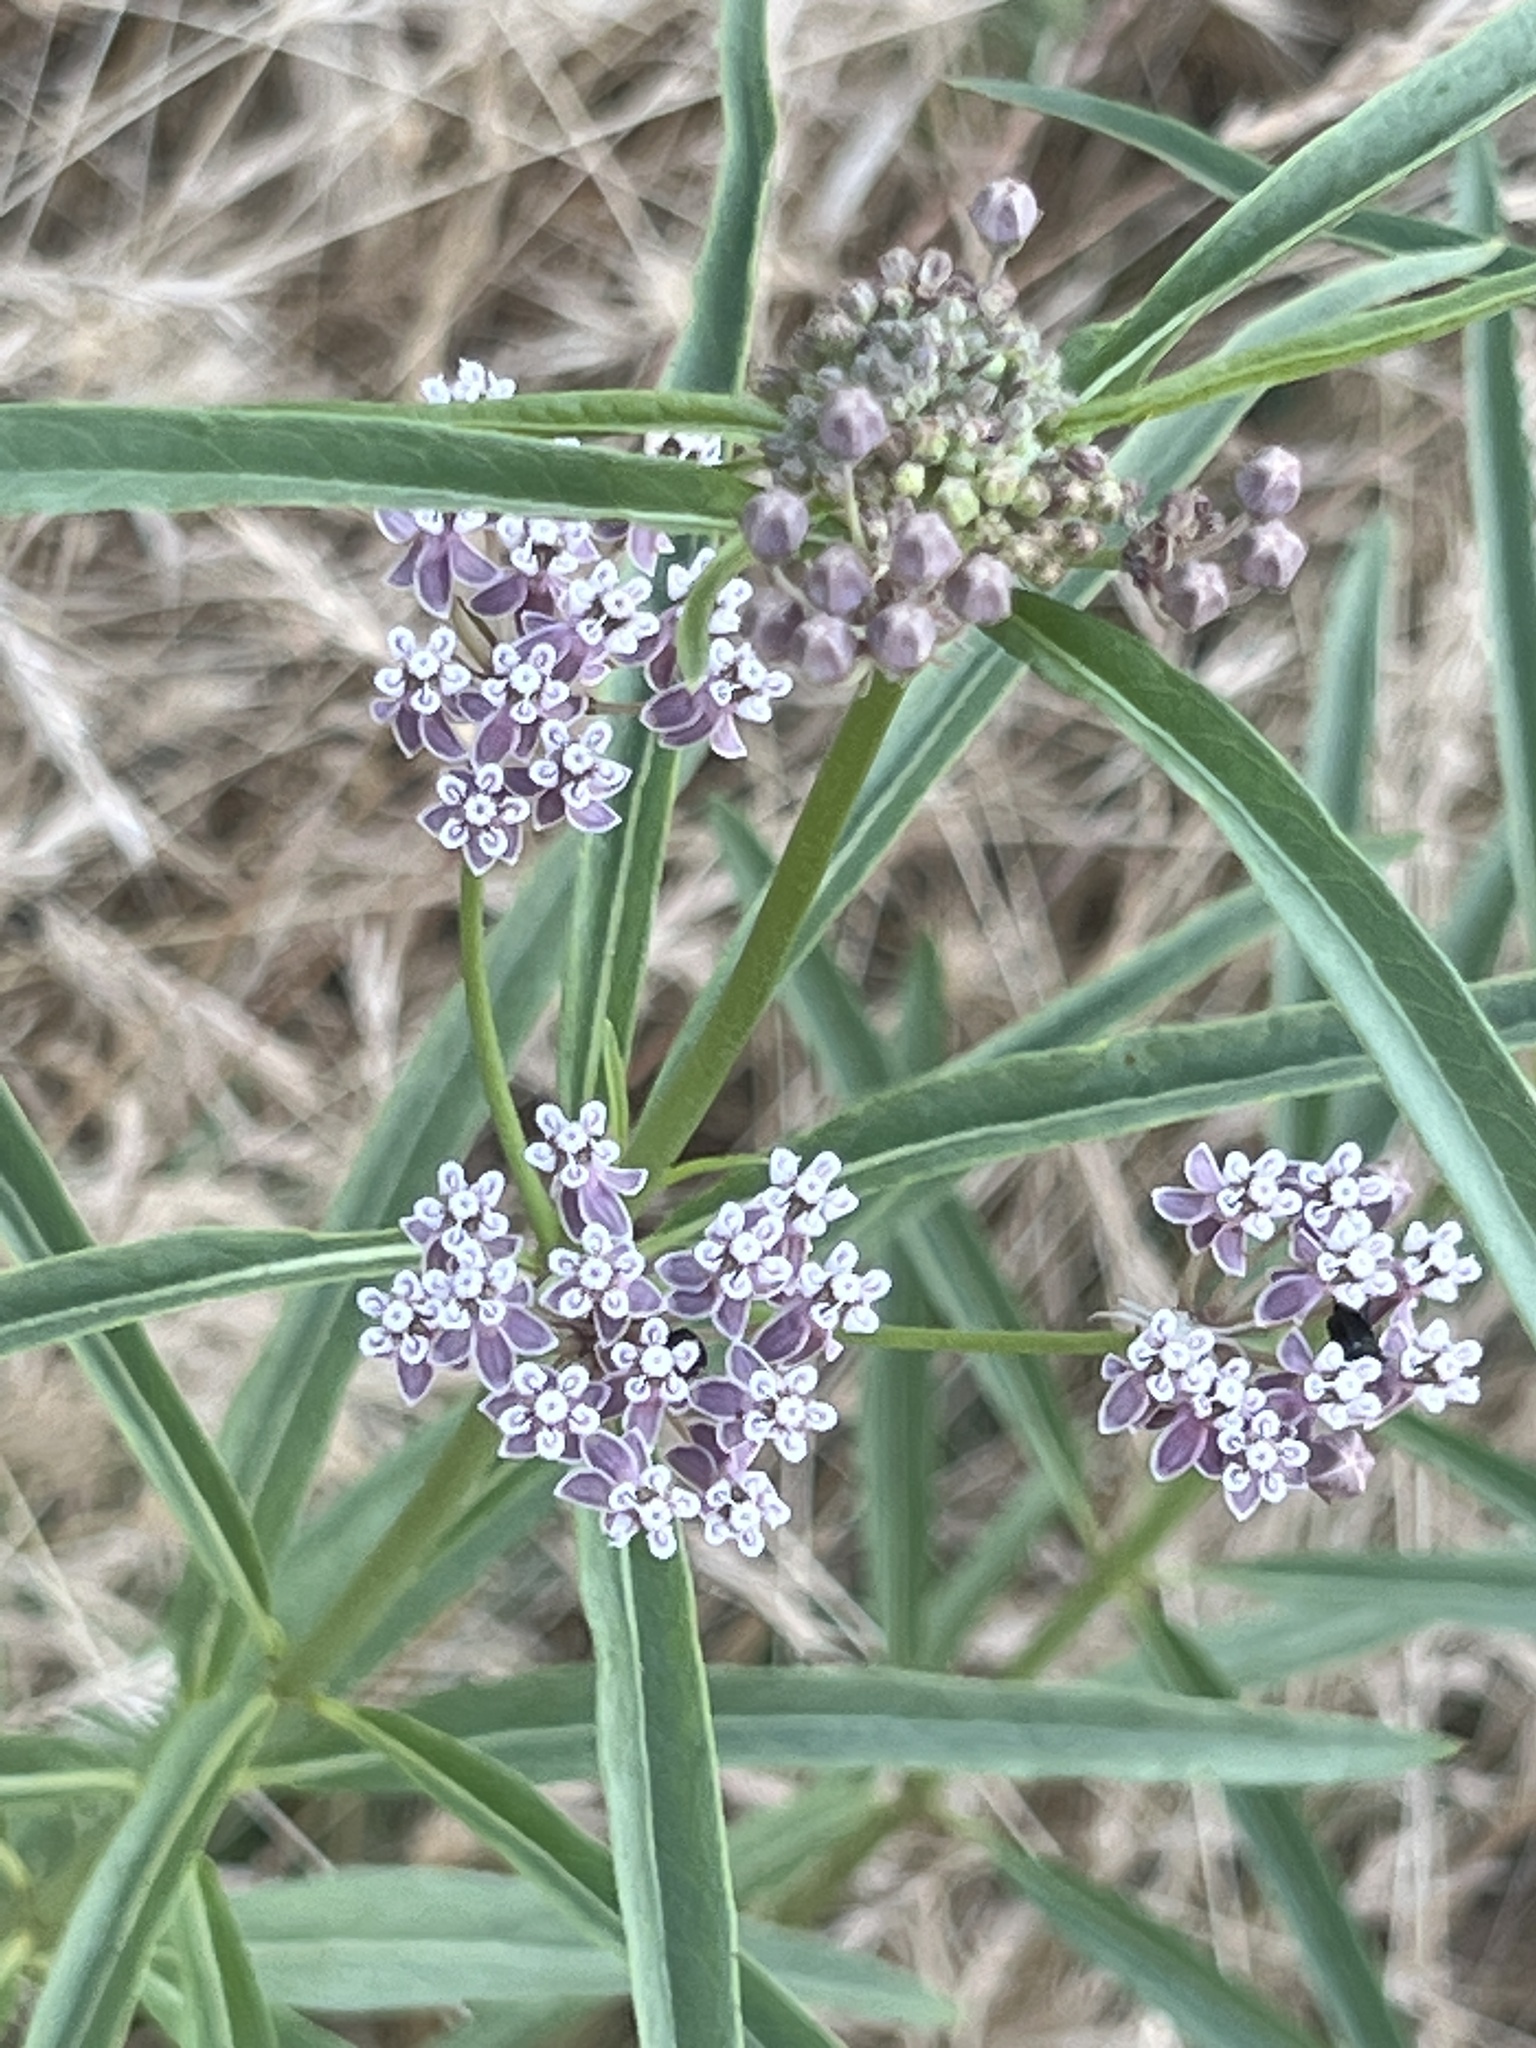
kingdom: Plantae
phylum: Tracheophyta
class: Magnoliopsida
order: Gentianales
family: Apocynaceae
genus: Asclepias
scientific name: Asclepias fascicularis
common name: Mexican milkweed
